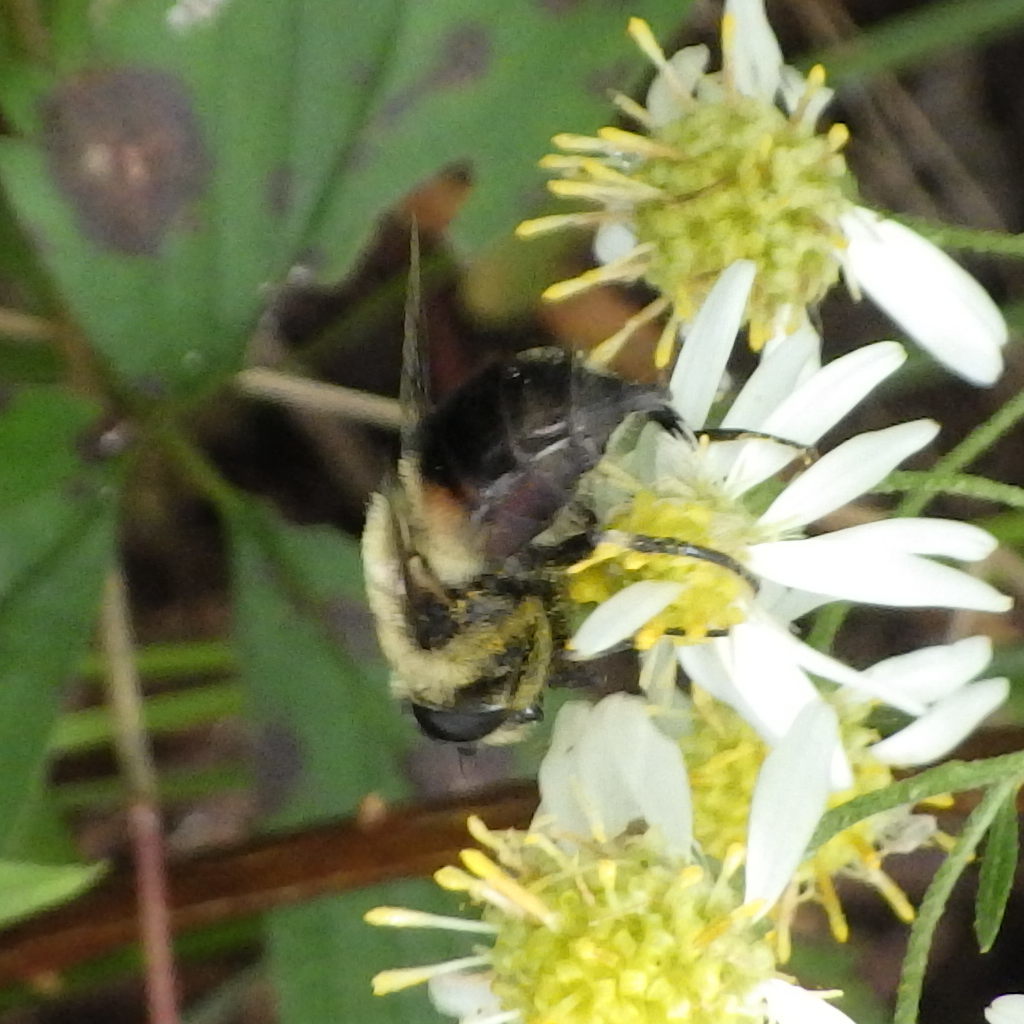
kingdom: Animalia
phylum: Arthropoda
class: Insecta
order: Diptera
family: Syrphidae
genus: Eristalis
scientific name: Eristalis anthophorina
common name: Orange-spotted drone fly
